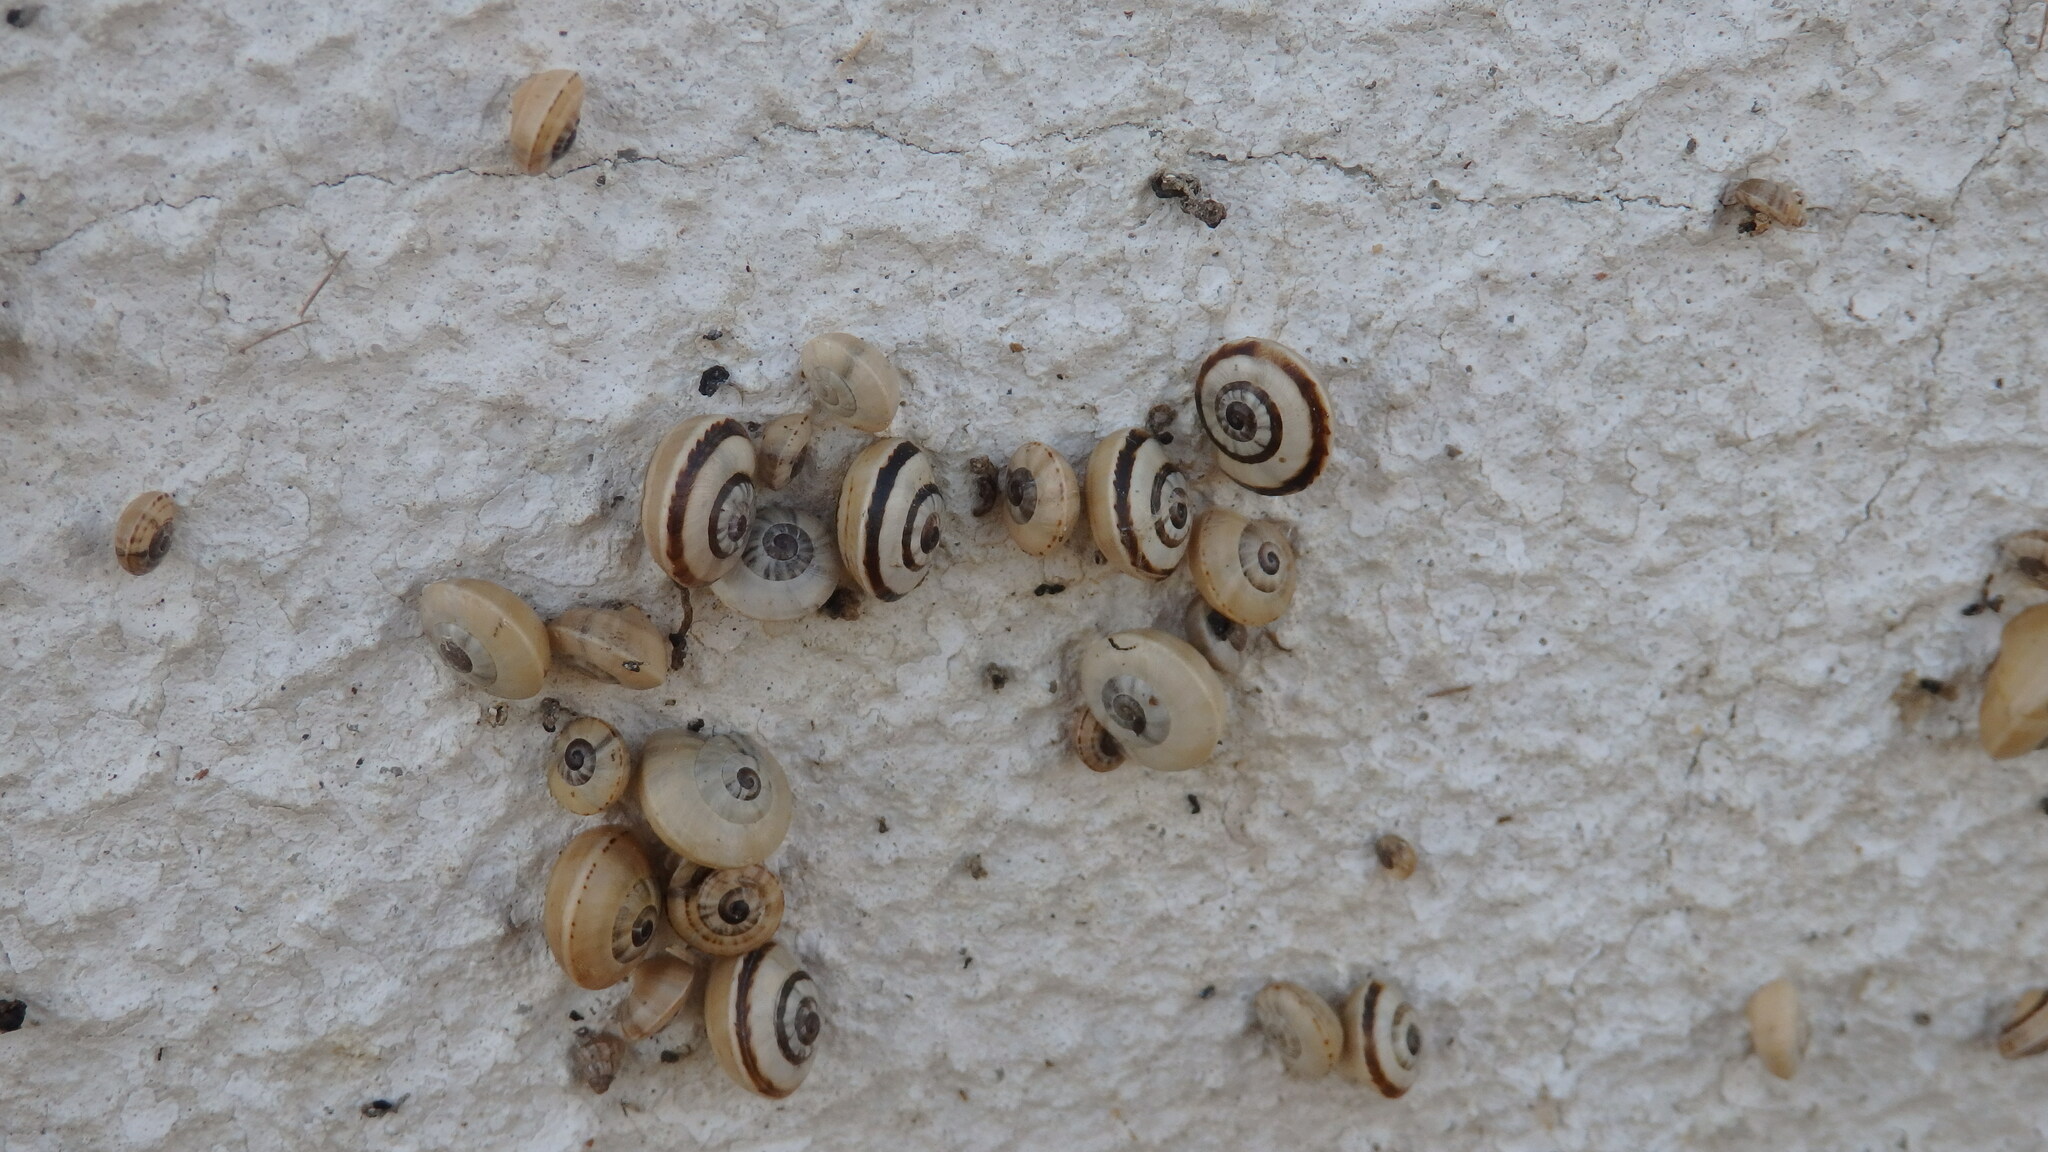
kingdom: Animalia
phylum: Mollusca
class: Gastropoda
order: Stylommatophora
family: Helicidae
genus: Theba
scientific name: Theba pisana
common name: White snail
